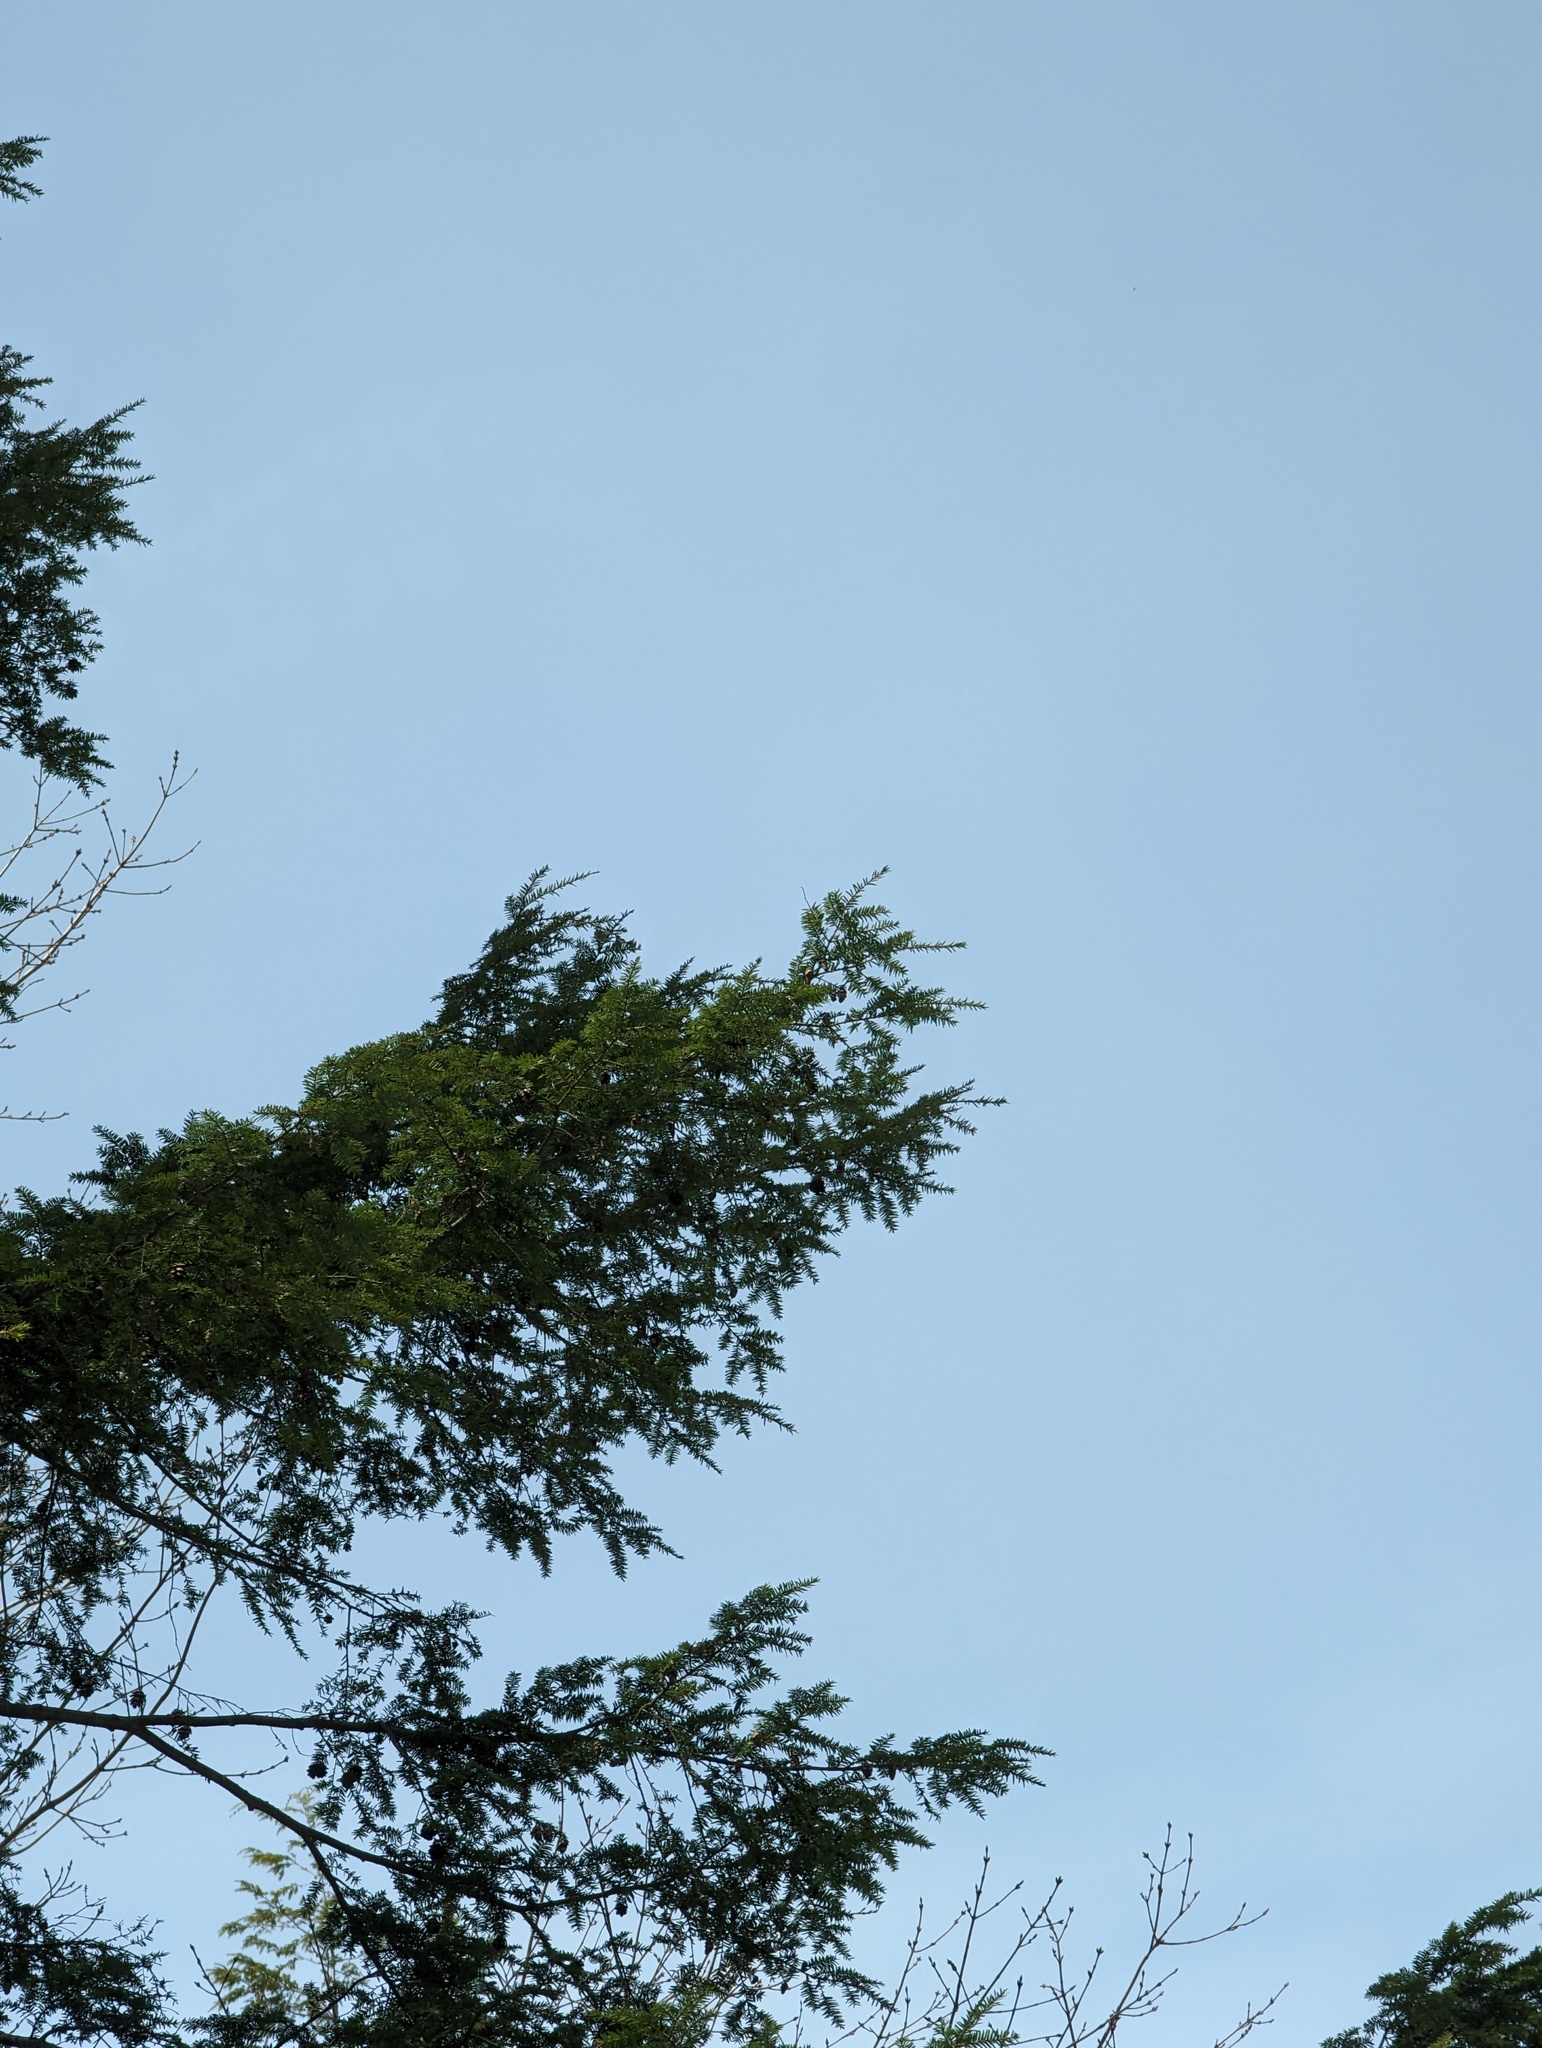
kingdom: Plantae
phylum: Tracheophyta
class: Pinopsida
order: Pinales
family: Pinaceae
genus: Tsuga
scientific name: Tsuga canadensis
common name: Eastern hemlock
